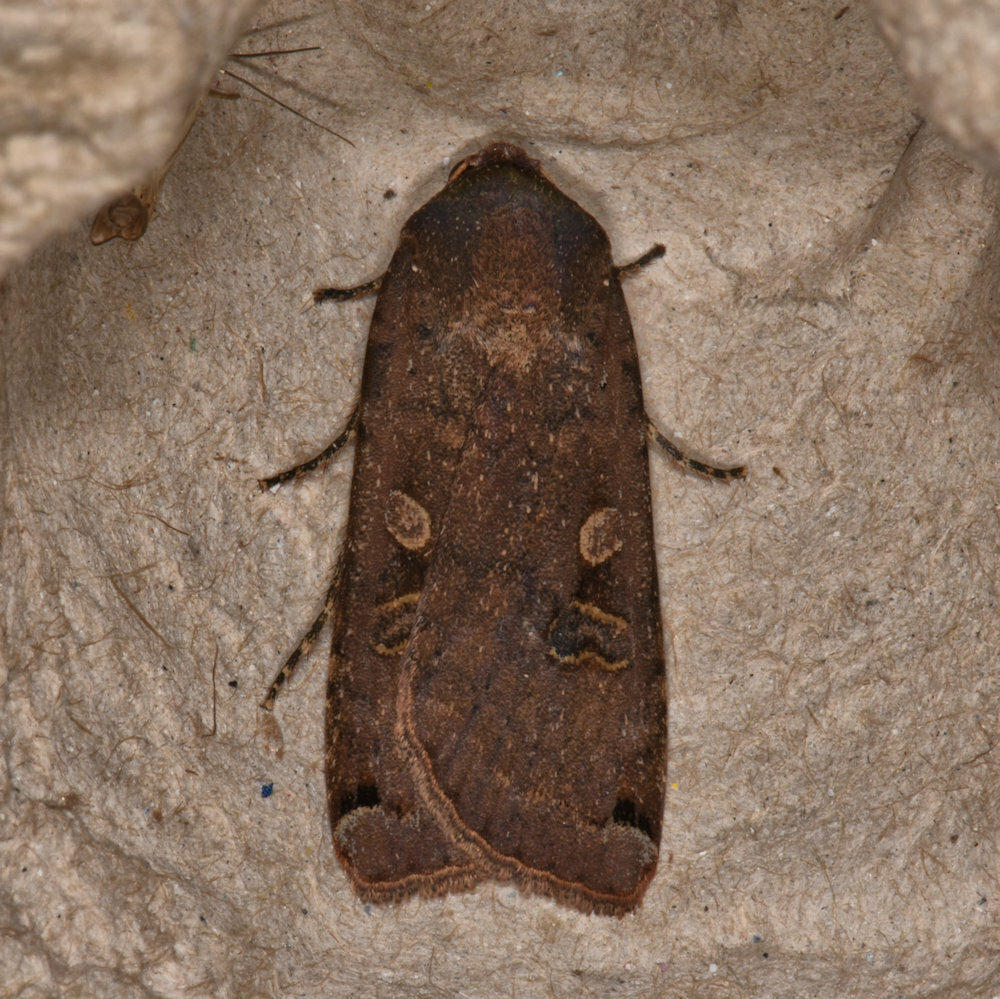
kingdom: Animalia
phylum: Arthropoda
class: Insecta
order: Lepidoptera
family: Noctuidae
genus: Noctua
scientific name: Noctua pronuba
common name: Large yellow underwing
